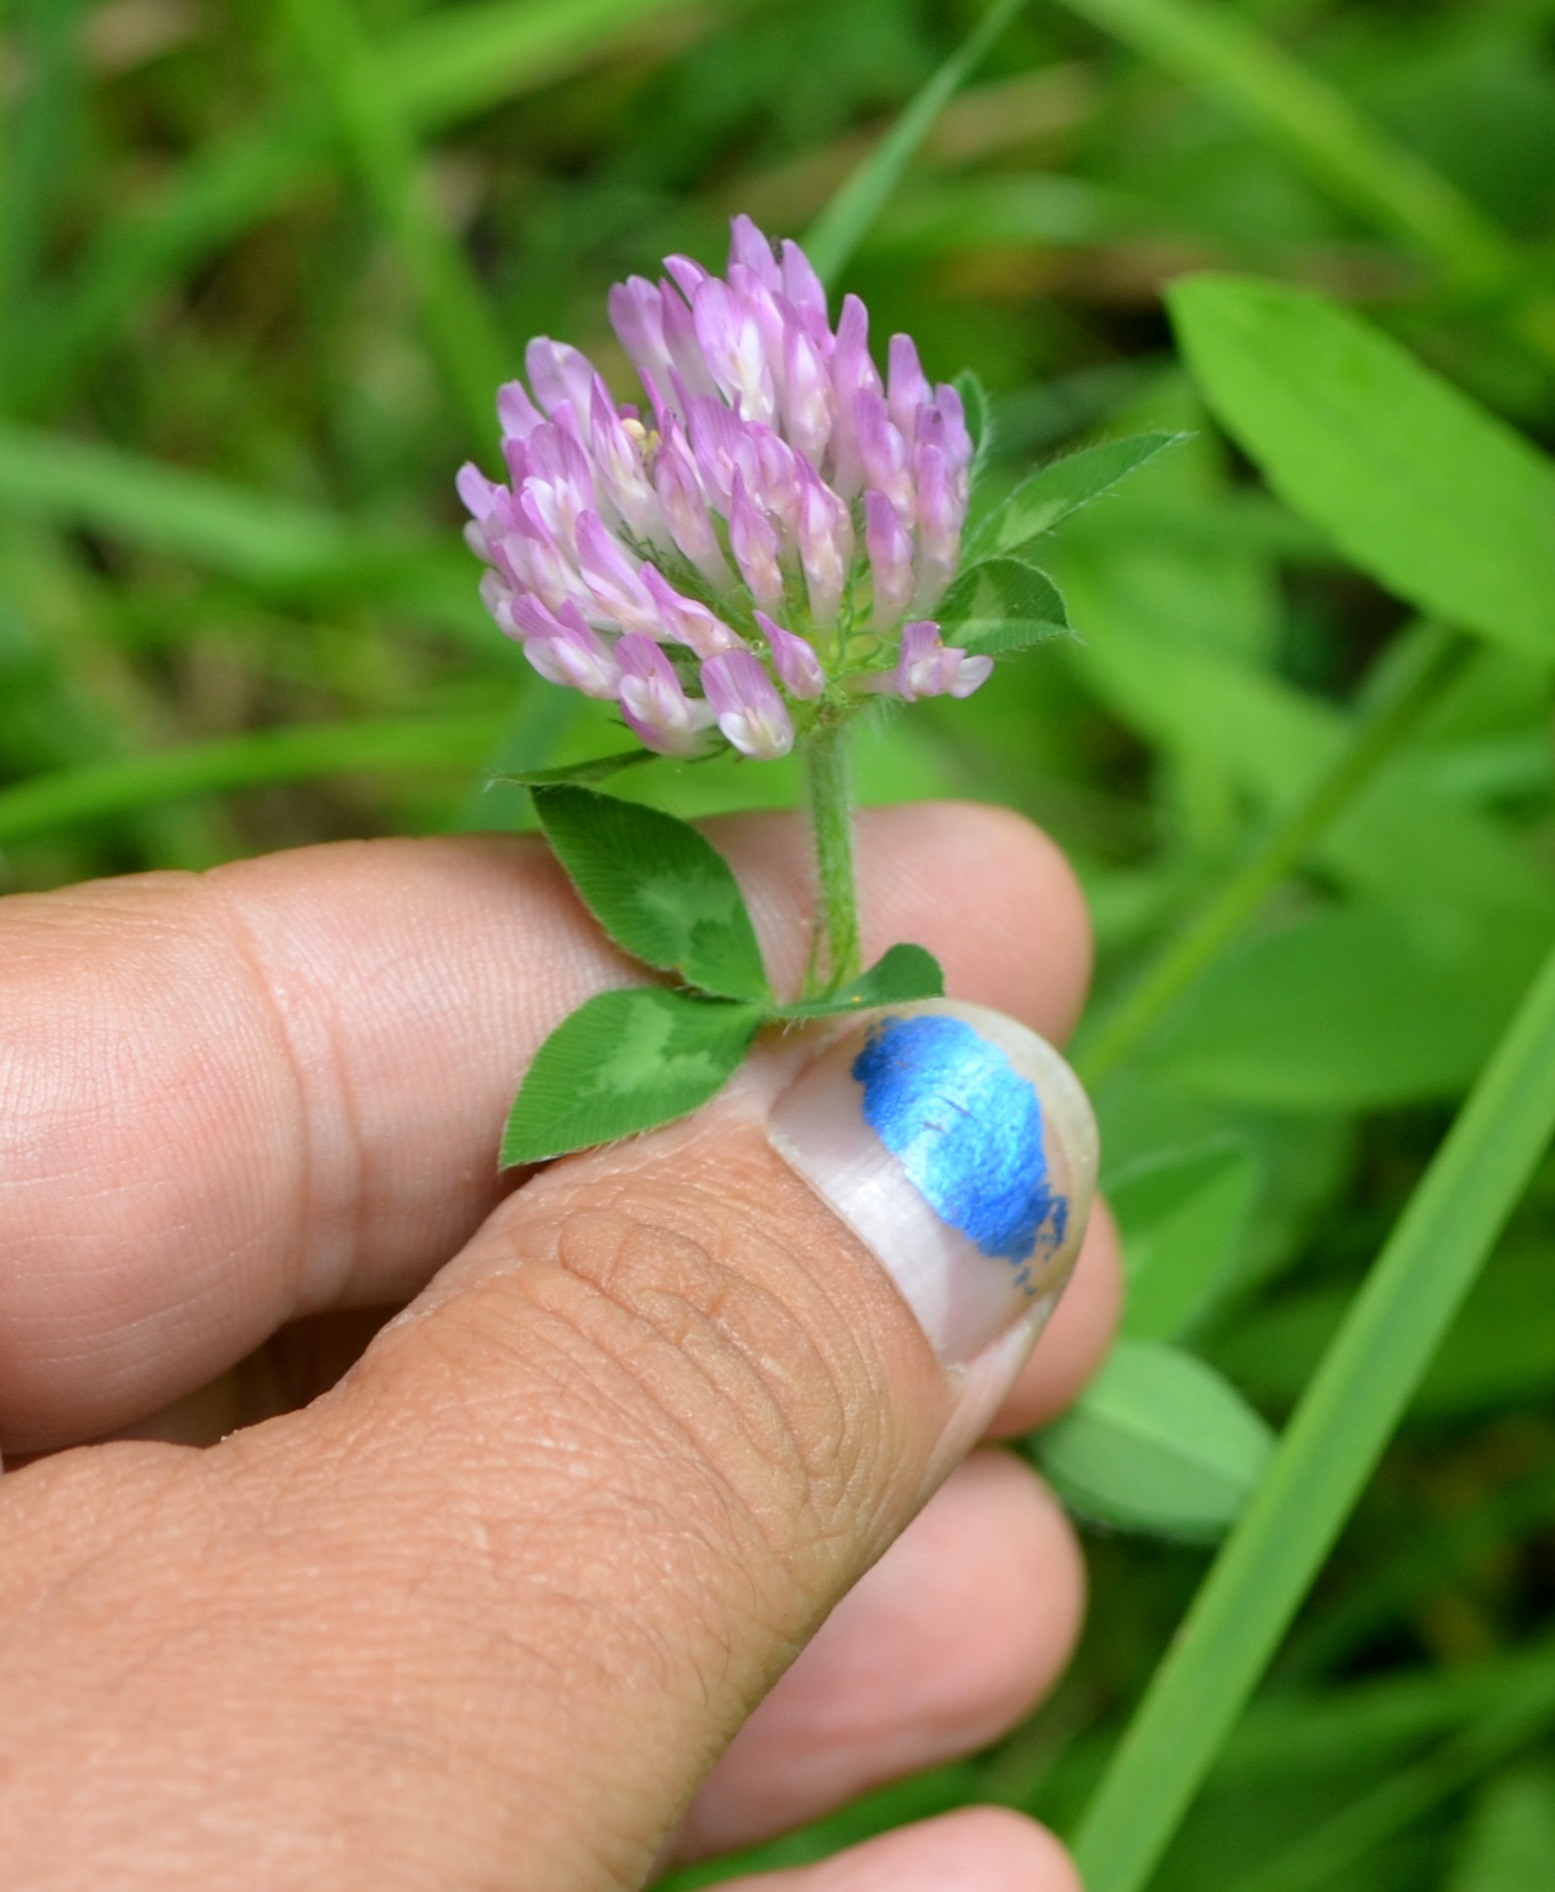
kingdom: Plantae
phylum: Tracheophyta
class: Magnoliopsida
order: Fabales
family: Fabaceae
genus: Trifolium
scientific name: Trifolium pratense
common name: Red clover
